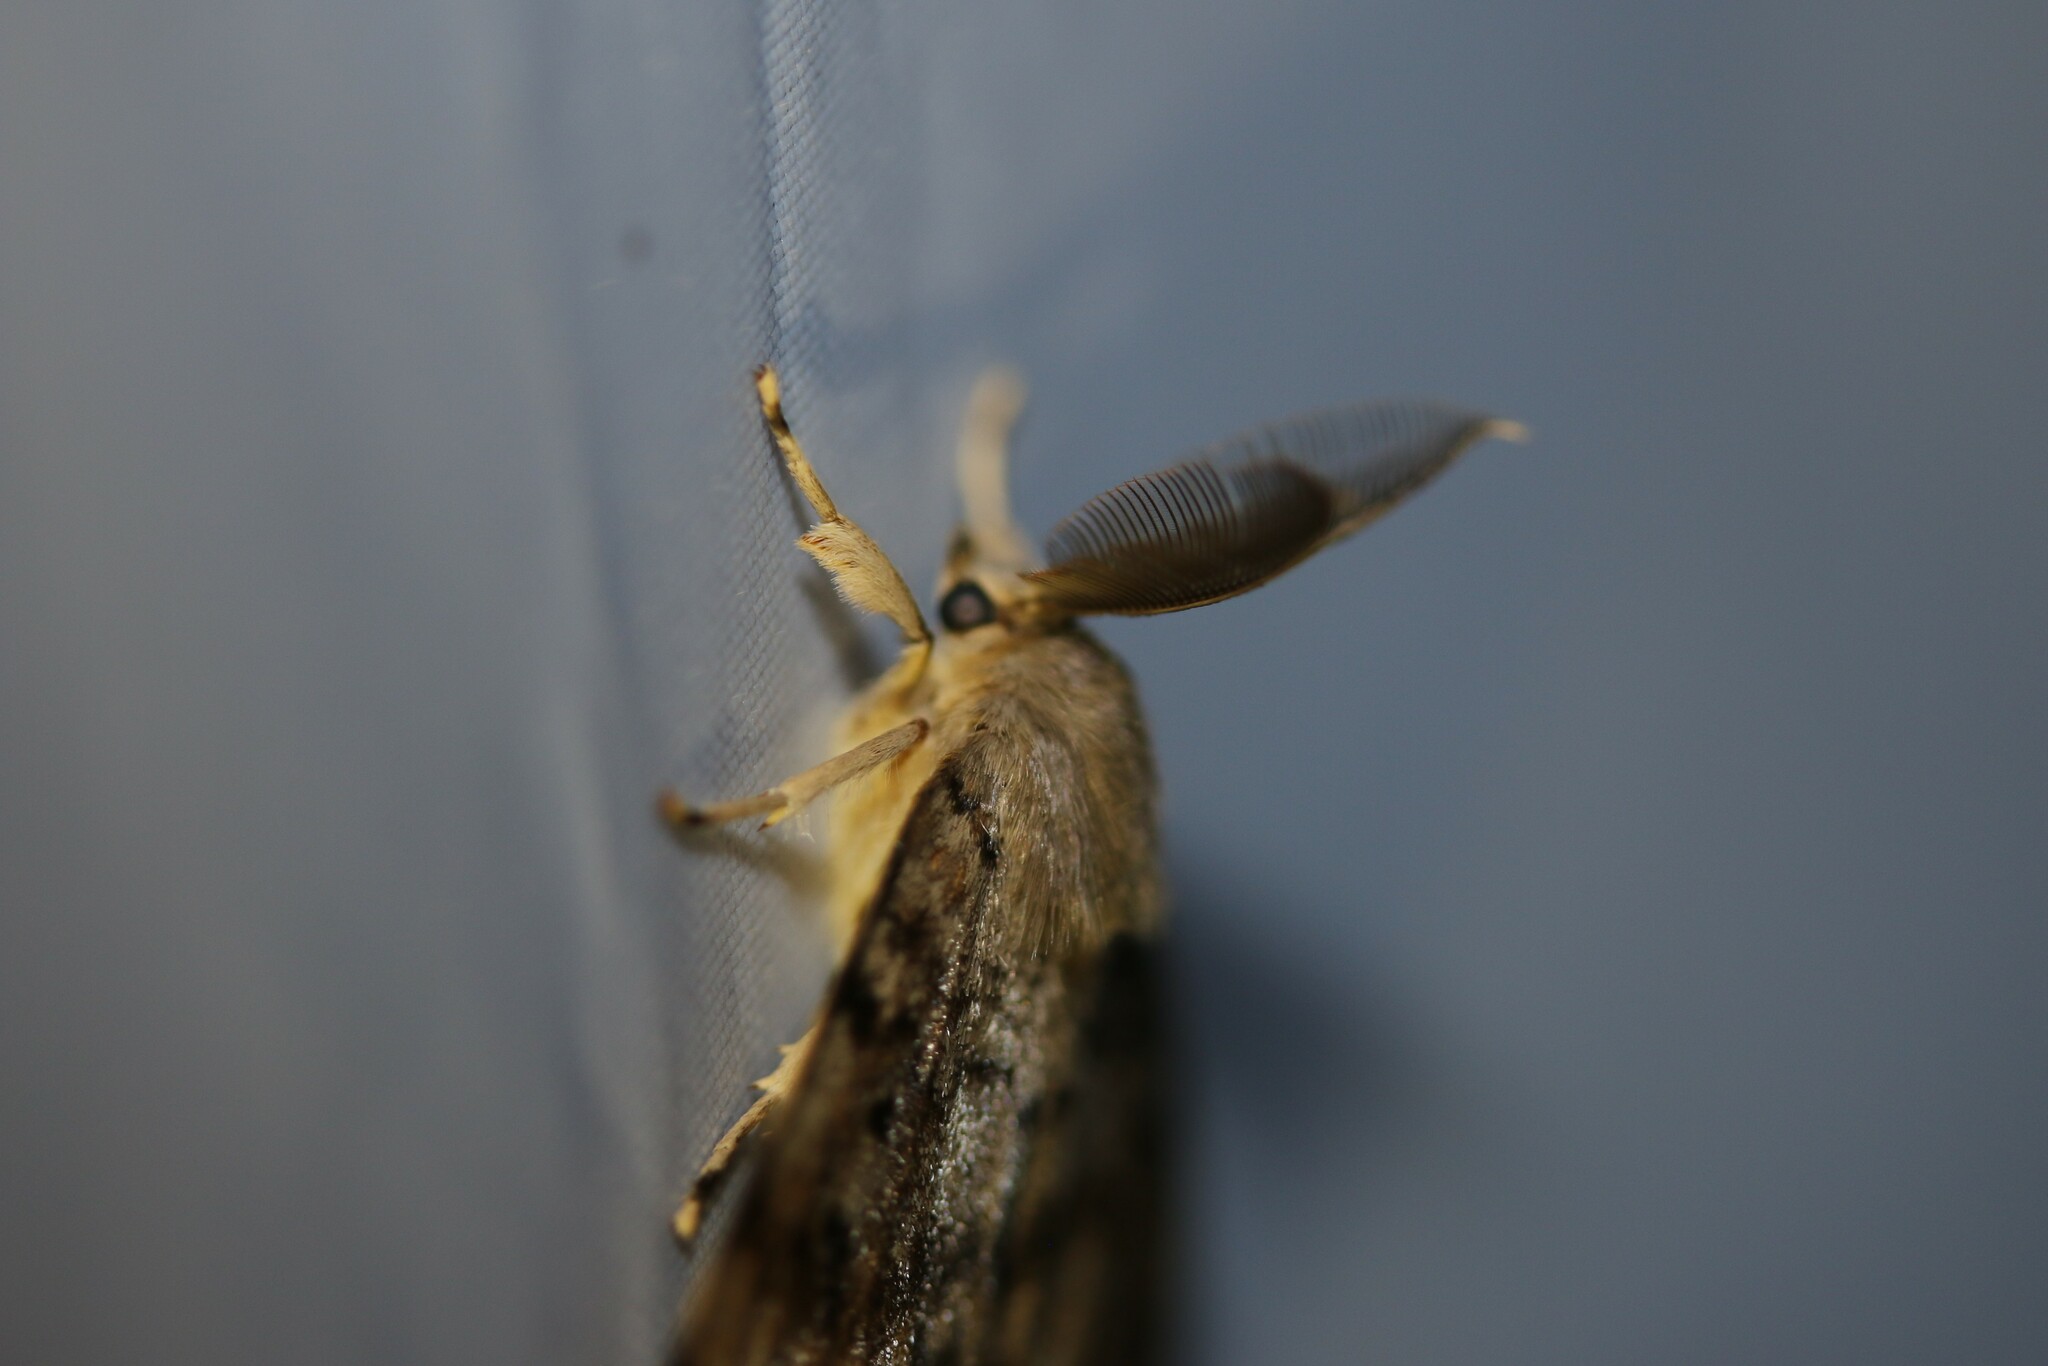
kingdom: Animalia
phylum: Arthropoda
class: Insecta
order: Lepidoptera
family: Erebidae
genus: Lymantria
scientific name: Lymantria dispar
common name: Gypsy moth
